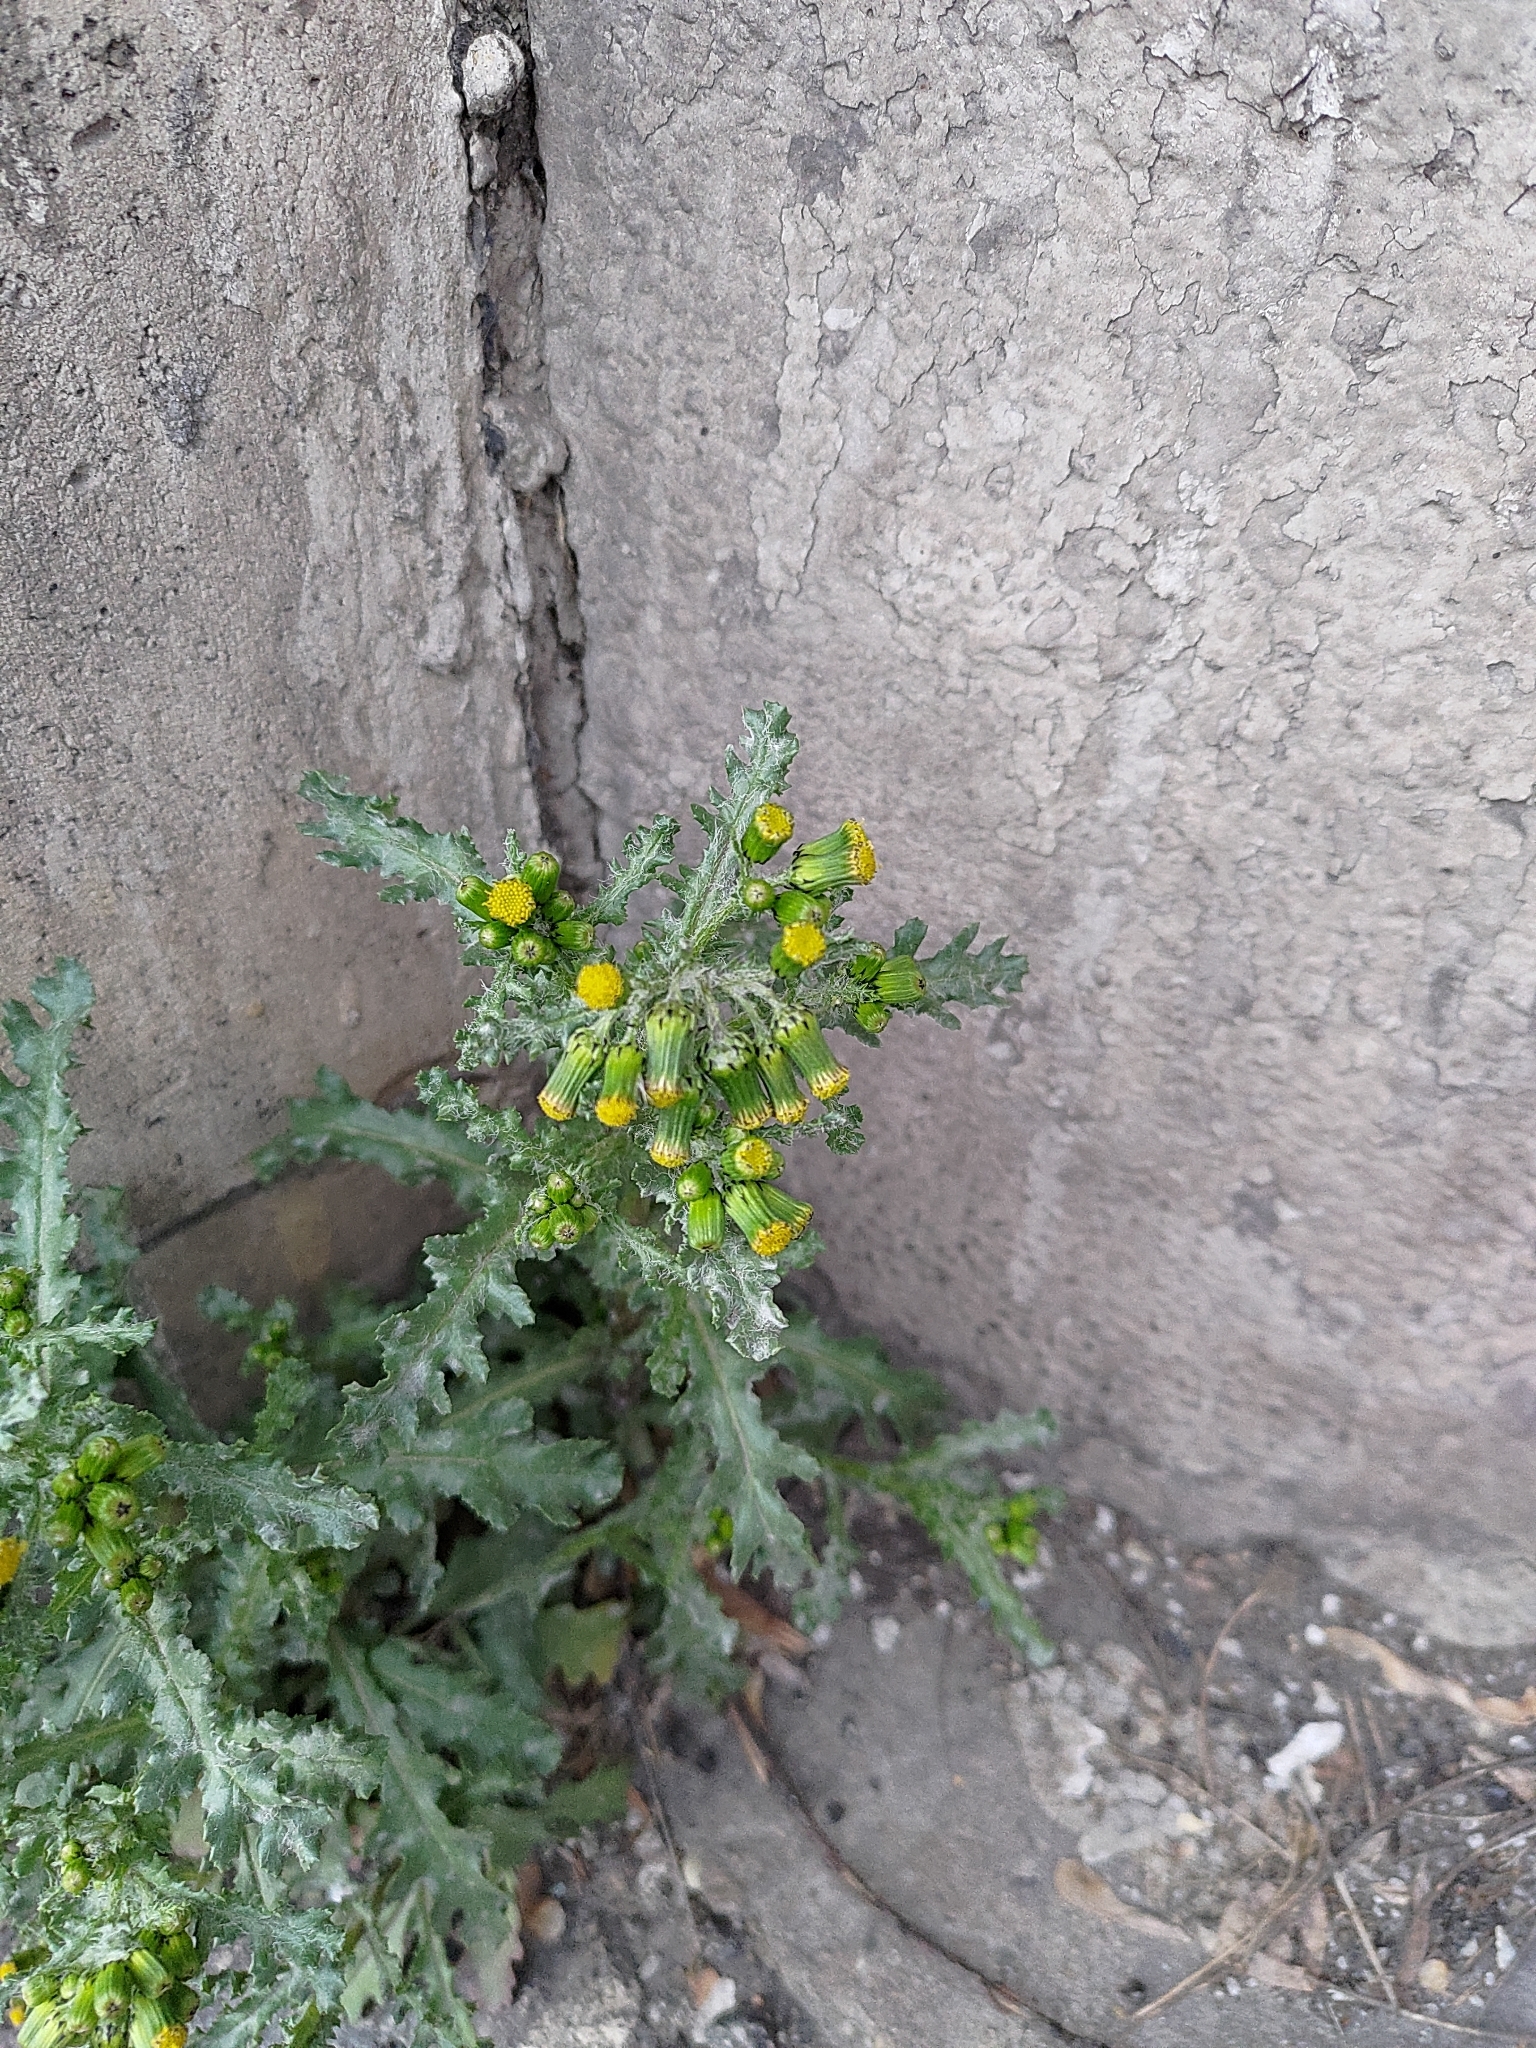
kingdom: Plantae
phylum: Tracheophyta
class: Magnoliopsida
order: Asterales
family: Asteraceae
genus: Senecio
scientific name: Senecio vulgaris
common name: Old-man-in-the-spring
